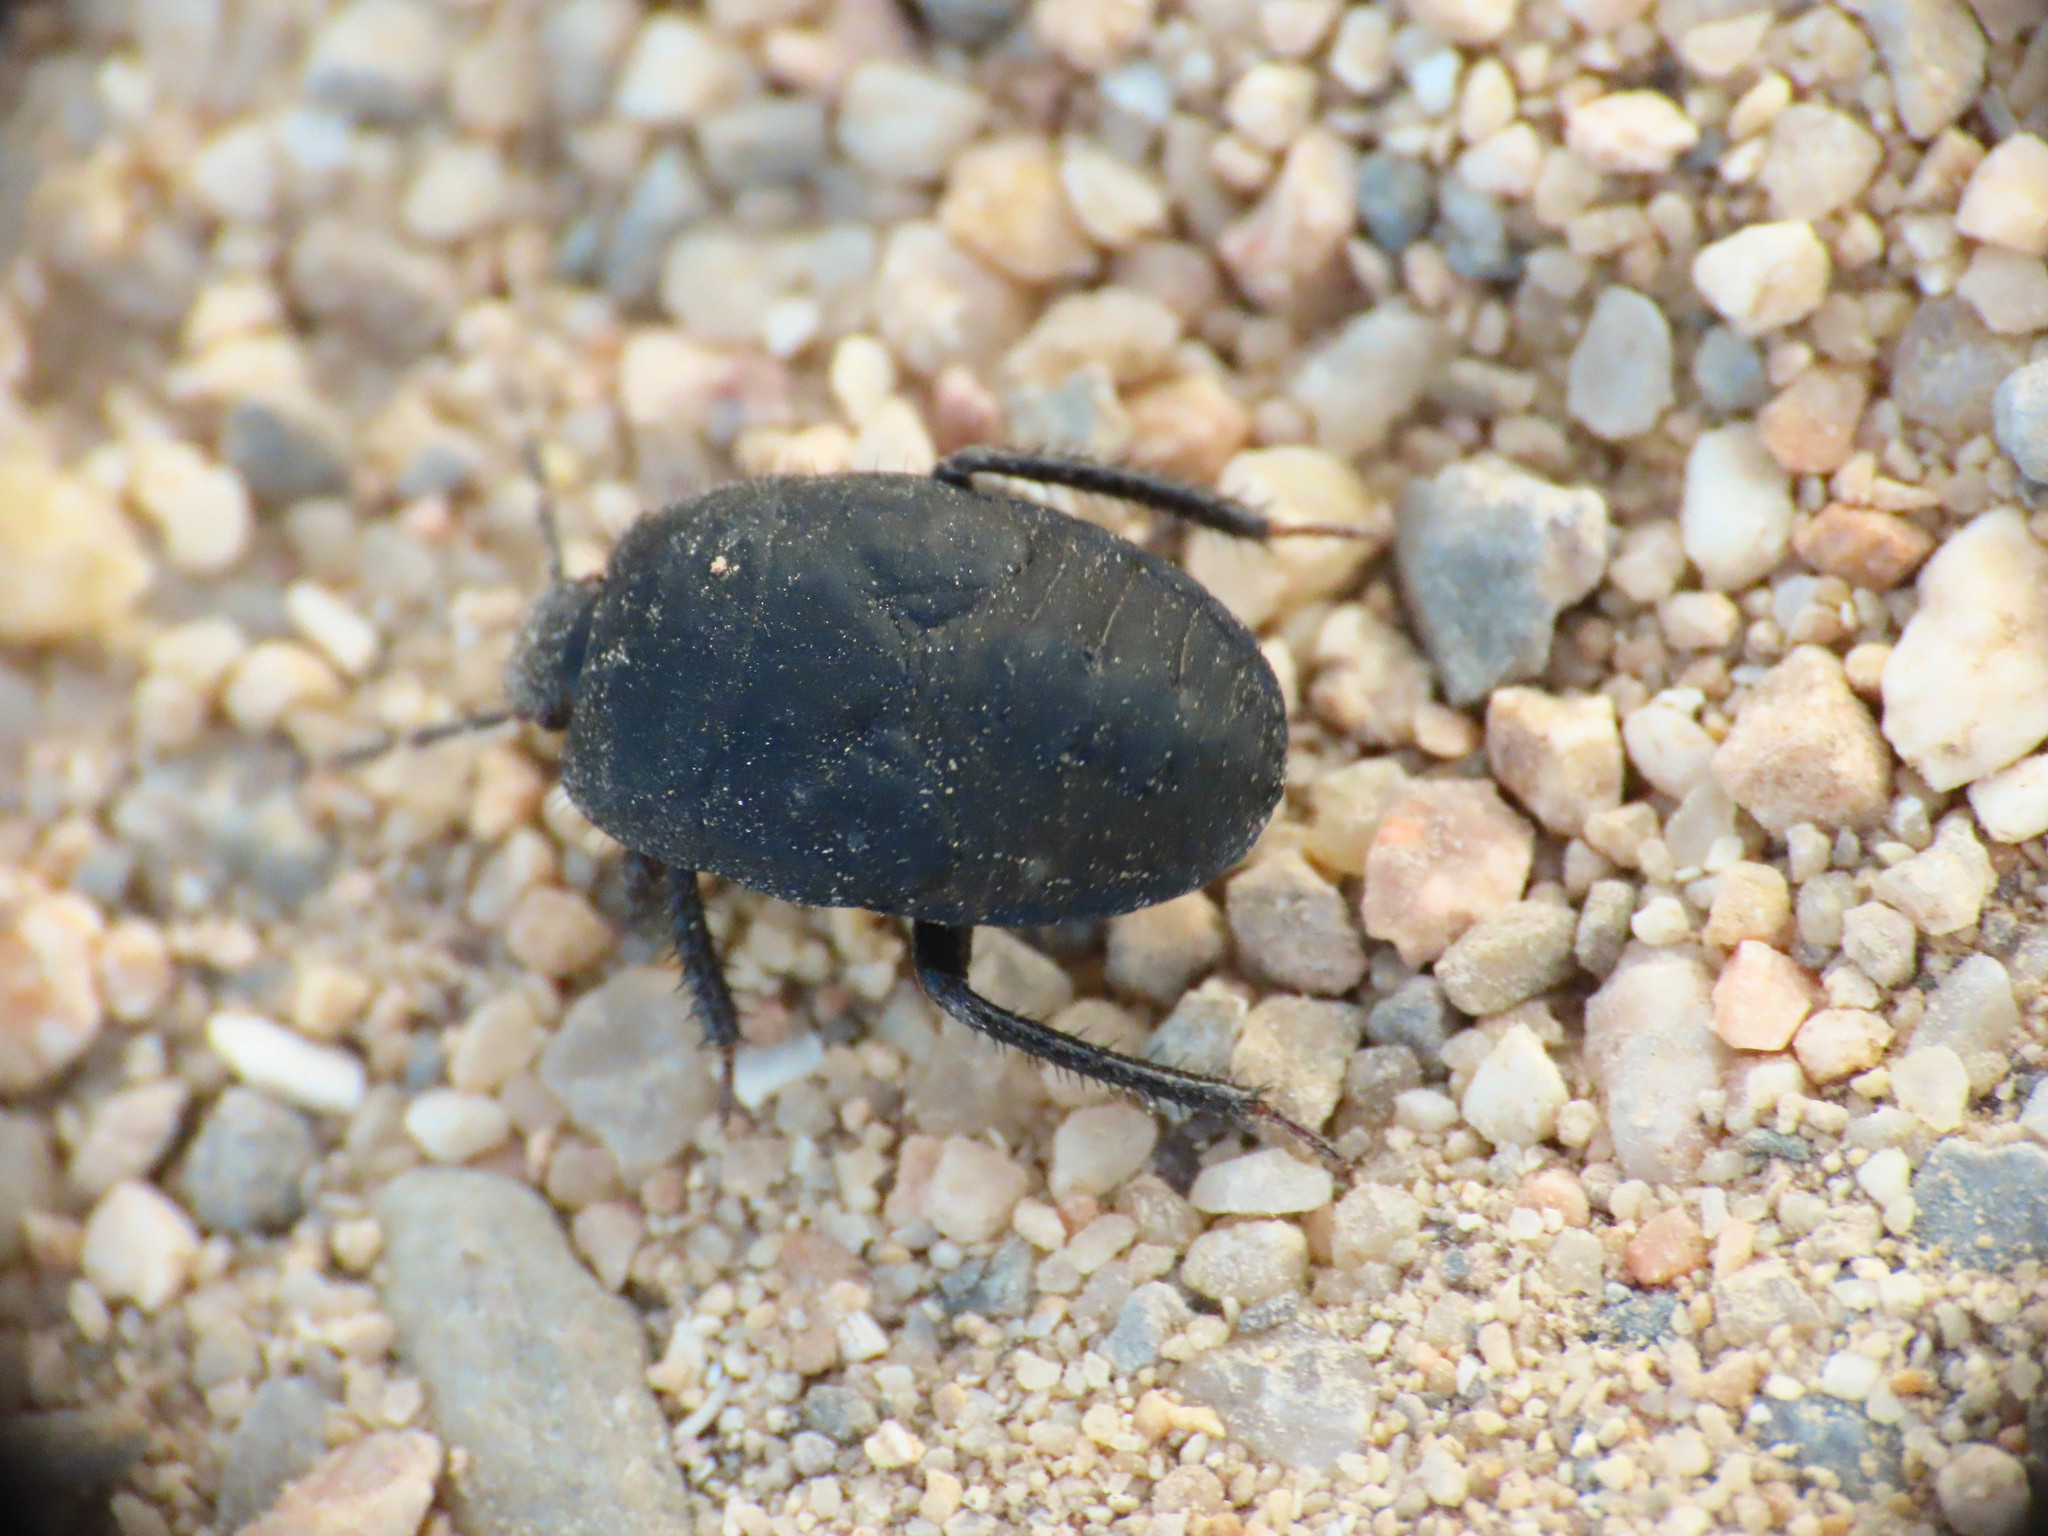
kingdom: Animalia
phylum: Arthropoda
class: Insecta
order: Hemiptera
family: Cydnidae
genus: Cydnus
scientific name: Cydnus aterrimus
